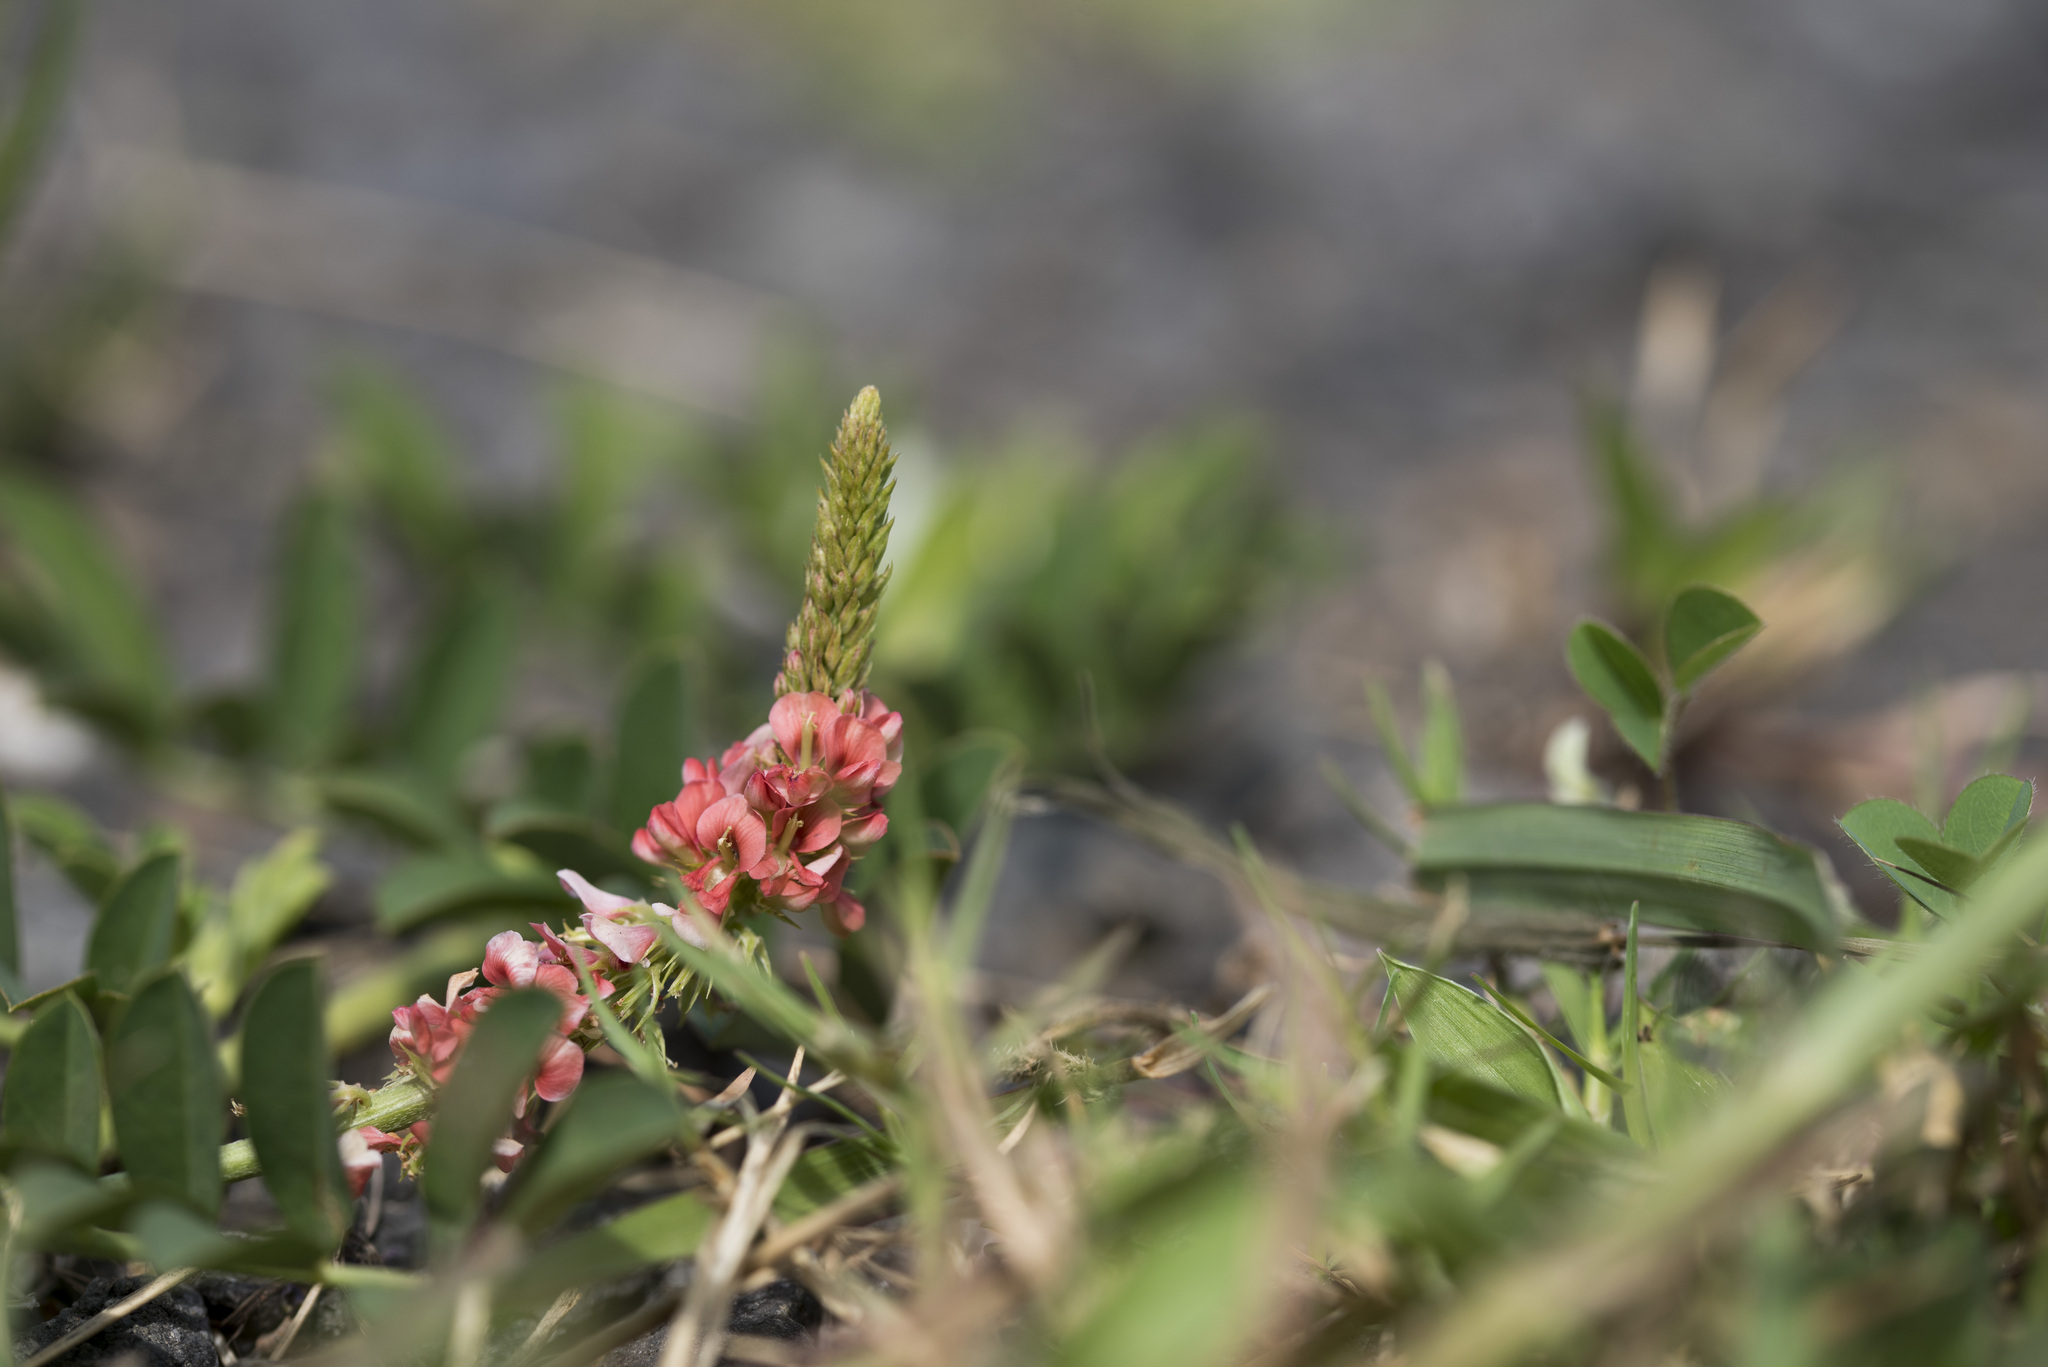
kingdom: Plantae
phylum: Tracheophyta
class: Magnoliopsida
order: Fabales
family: Fabaceae
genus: Indigofera
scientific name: Indigofera spicata
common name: Creeping indigo
